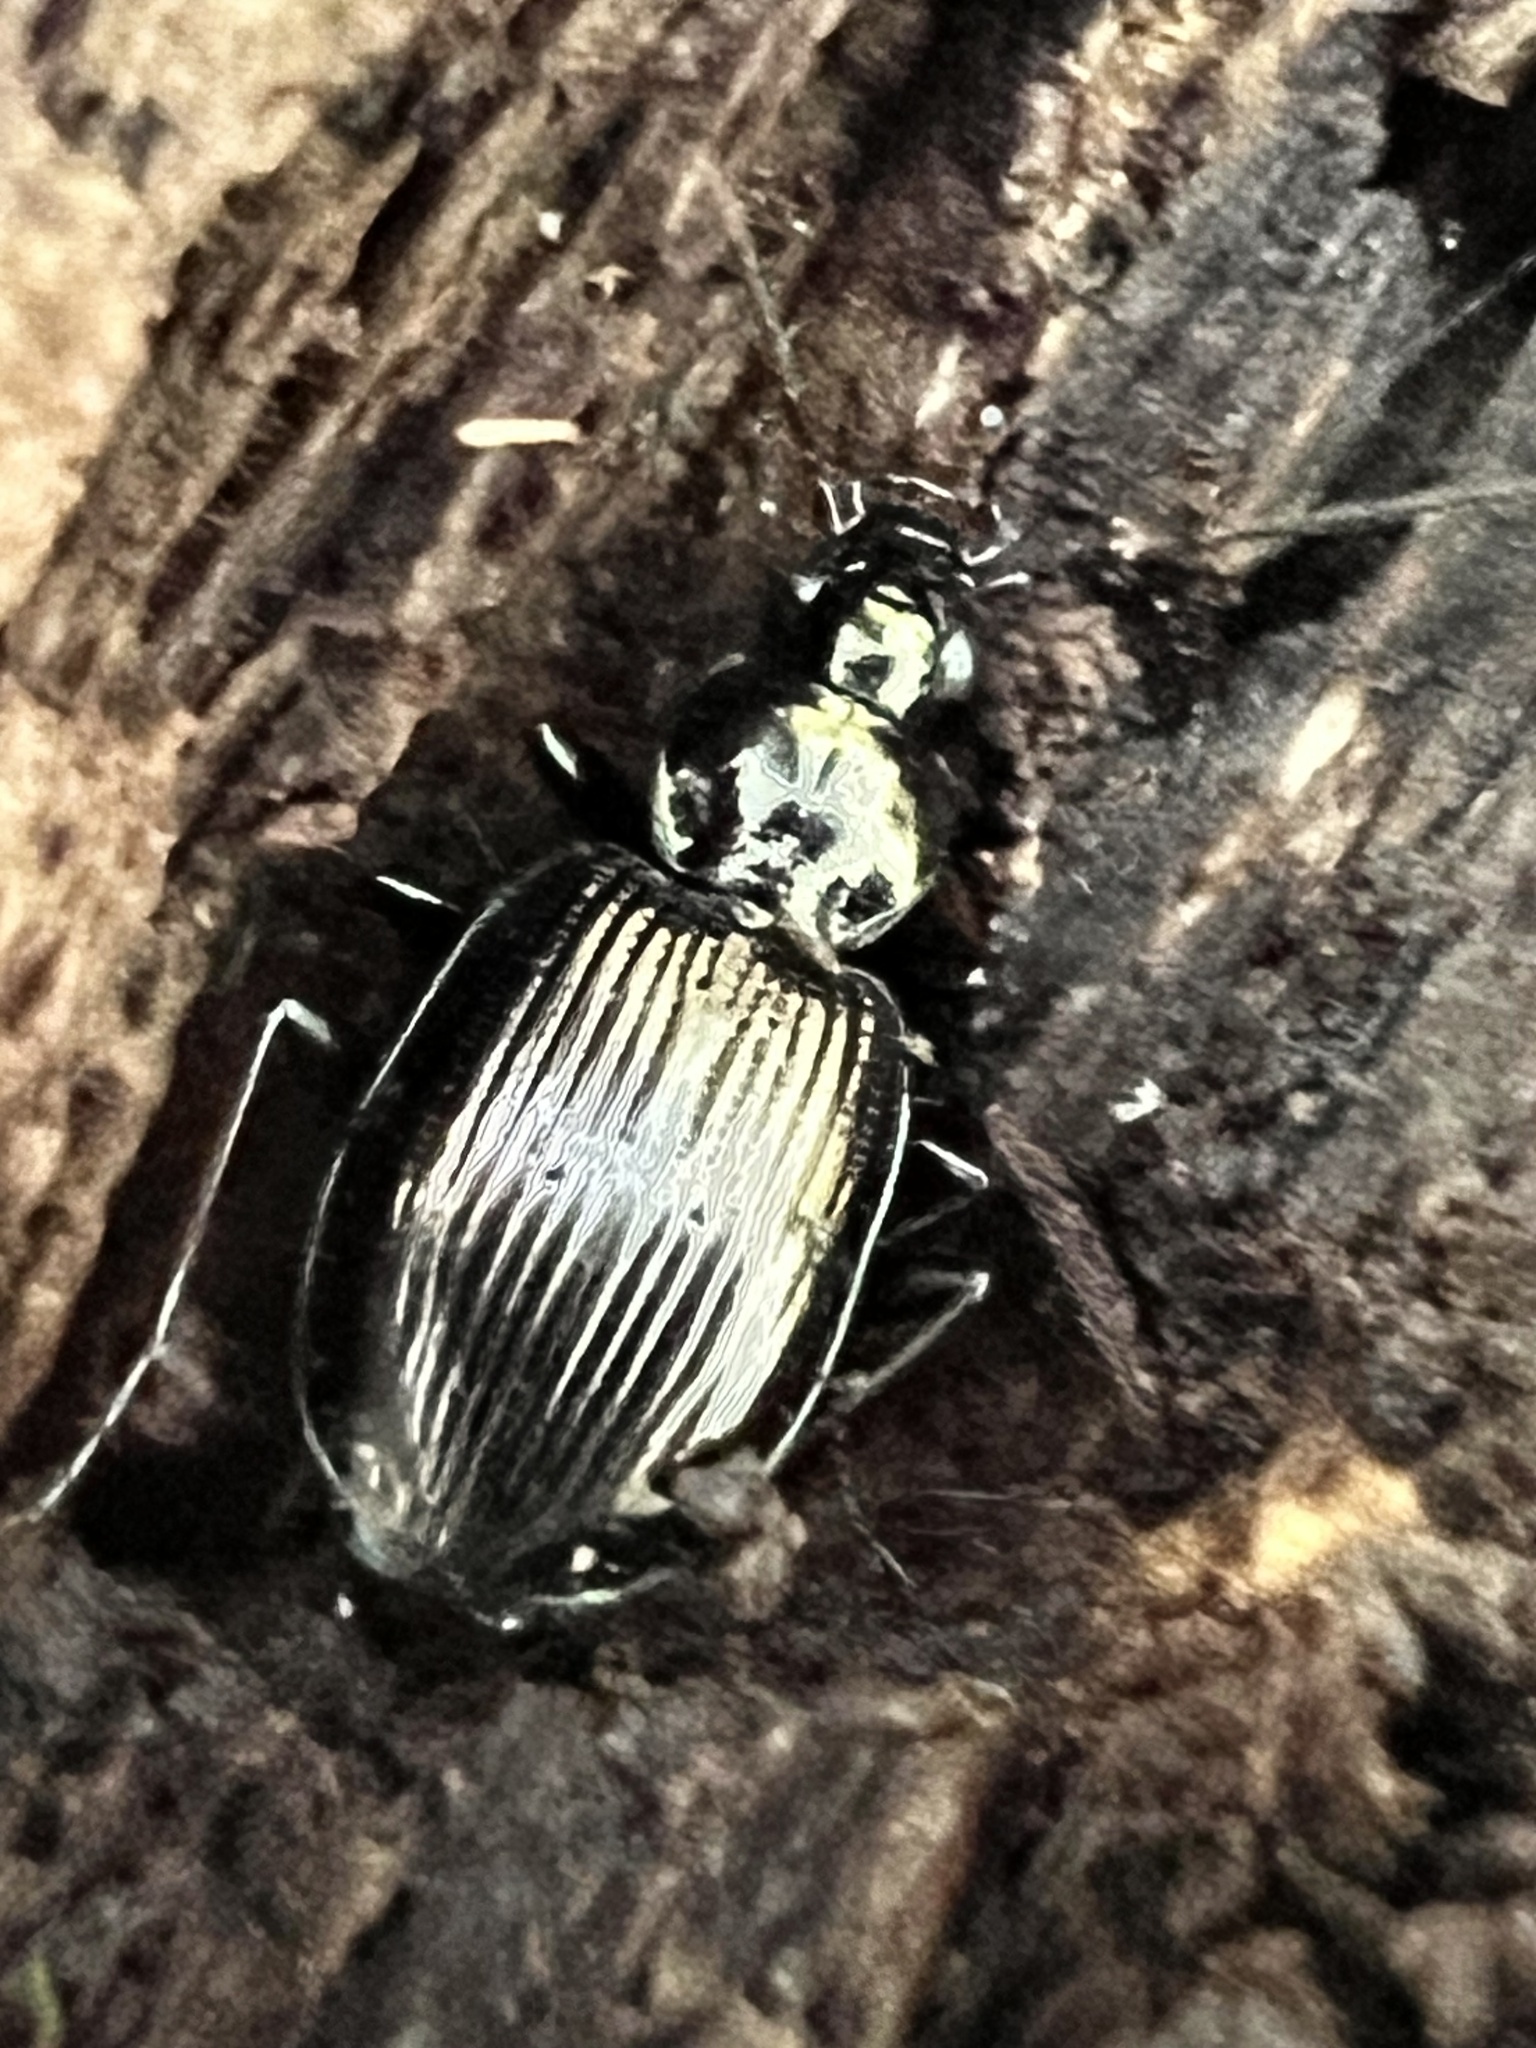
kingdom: Animalia
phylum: Arthropoda
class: Insecta
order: Coleoptera
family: Carabidae
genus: Agonum
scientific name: Agonum striatopunctatum
